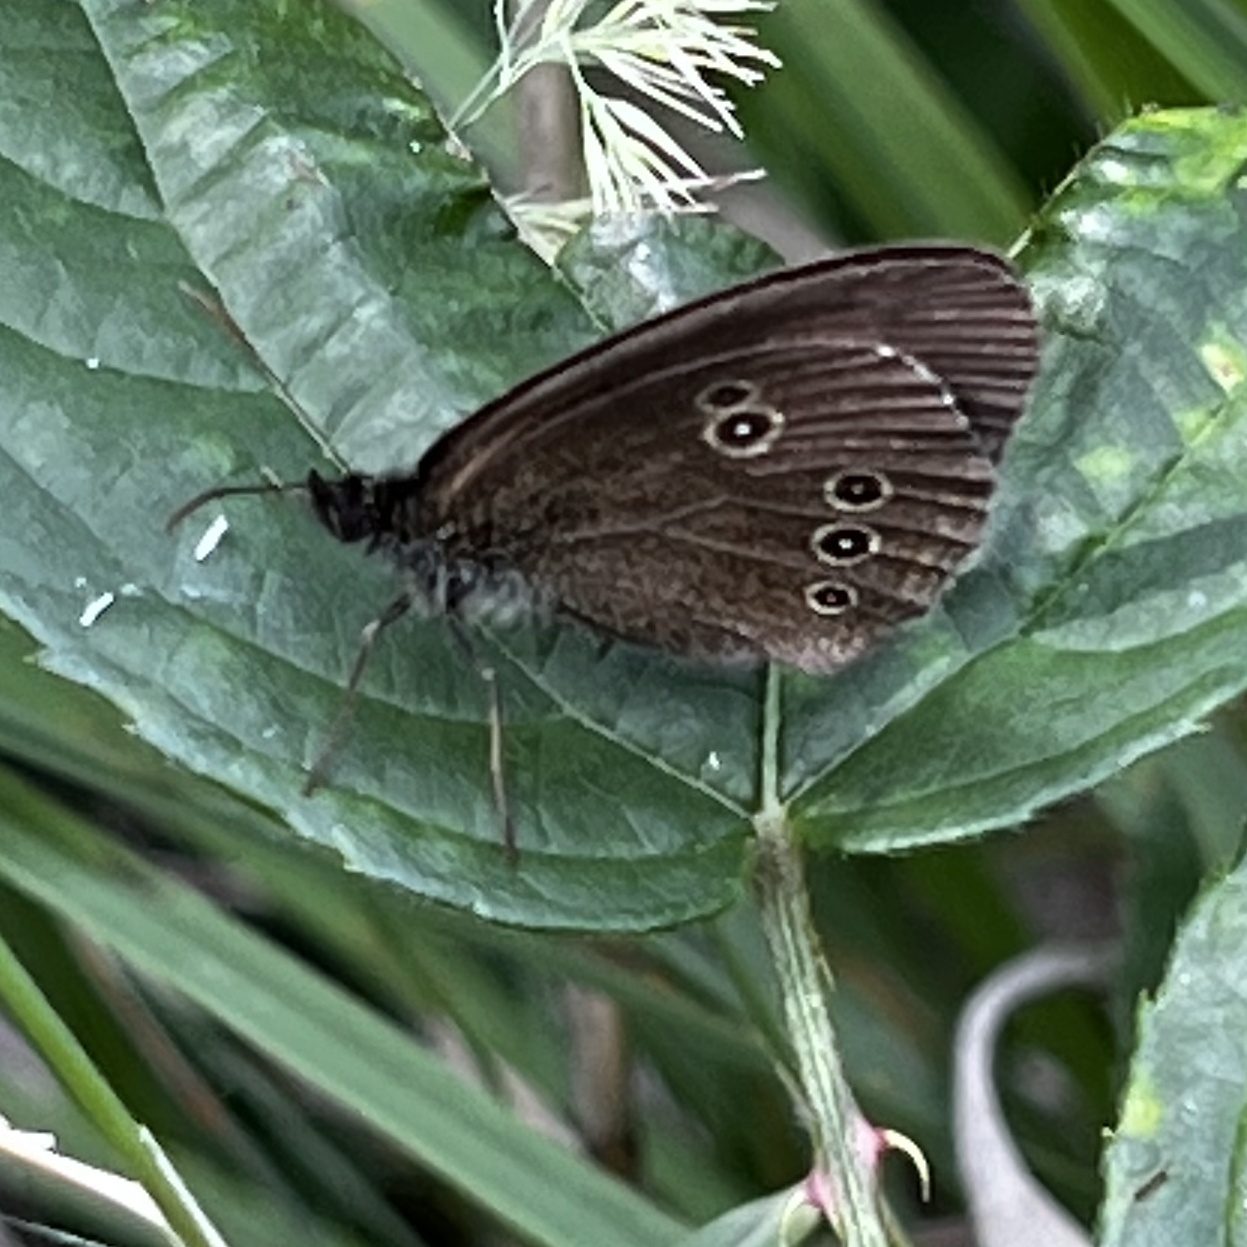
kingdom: Animalia
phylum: Arthropoda
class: Insecta
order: Lepidoptera
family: Nymphalidae
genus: Aphantopus
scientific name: Aphantopus hyperantus
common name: Ringlet
